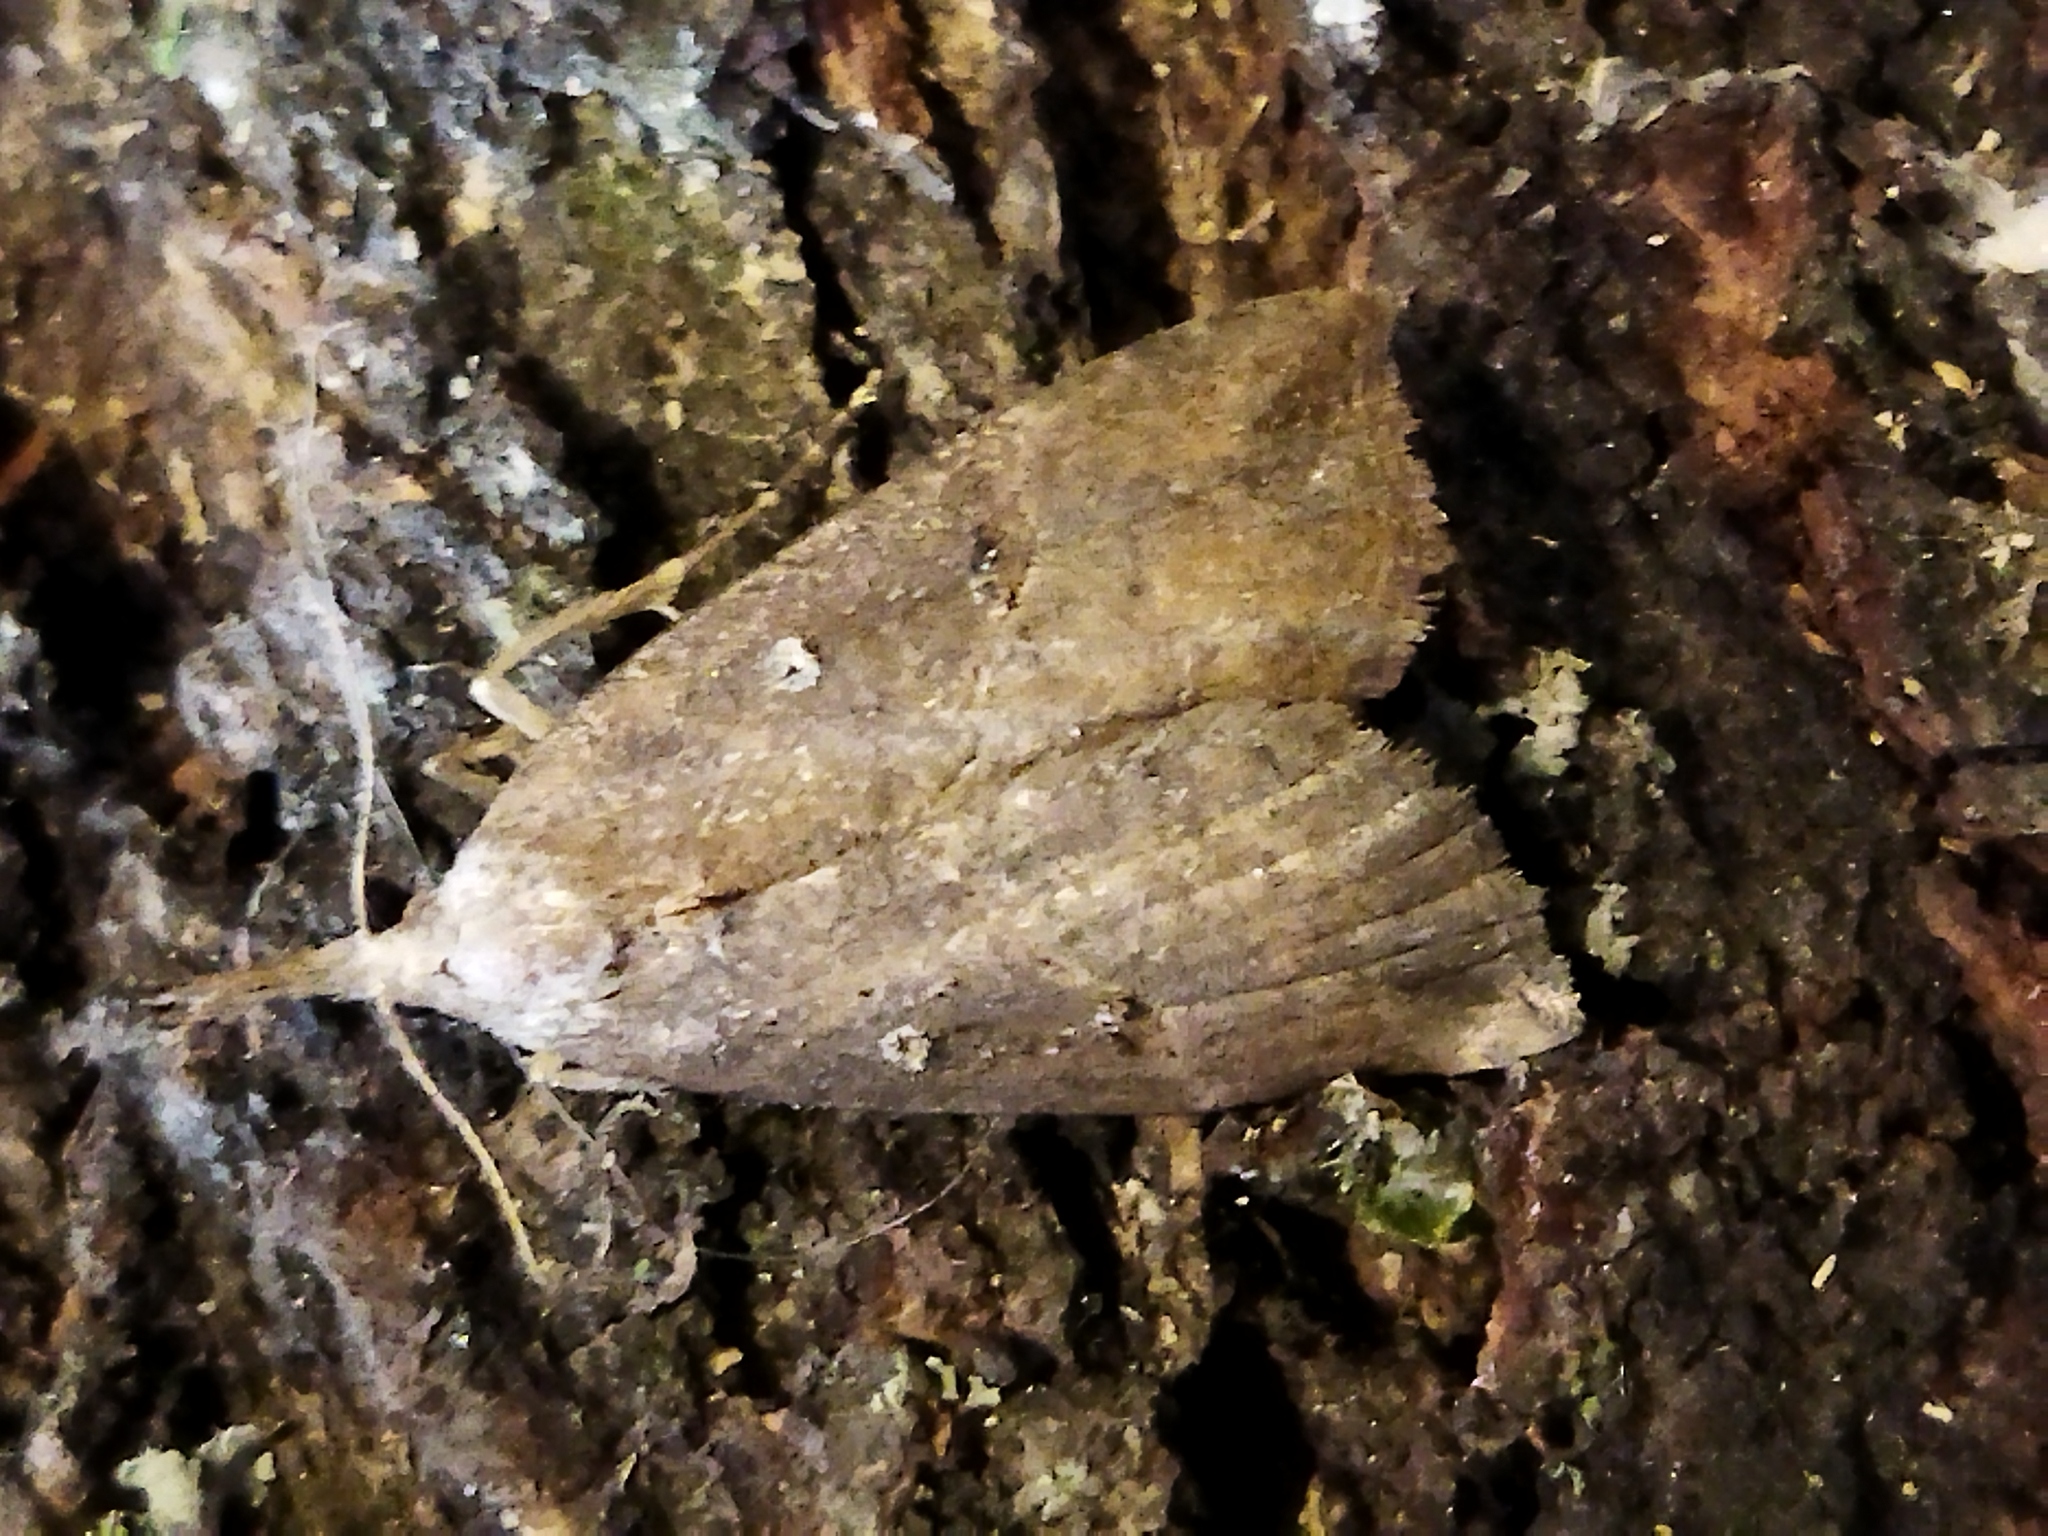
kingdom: Animalia
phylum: Arthropoda
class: Insecta
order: Lepidoptera
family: Erebidae
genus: Hypena
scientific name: Hypena rostralis
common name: Buttoned snout
